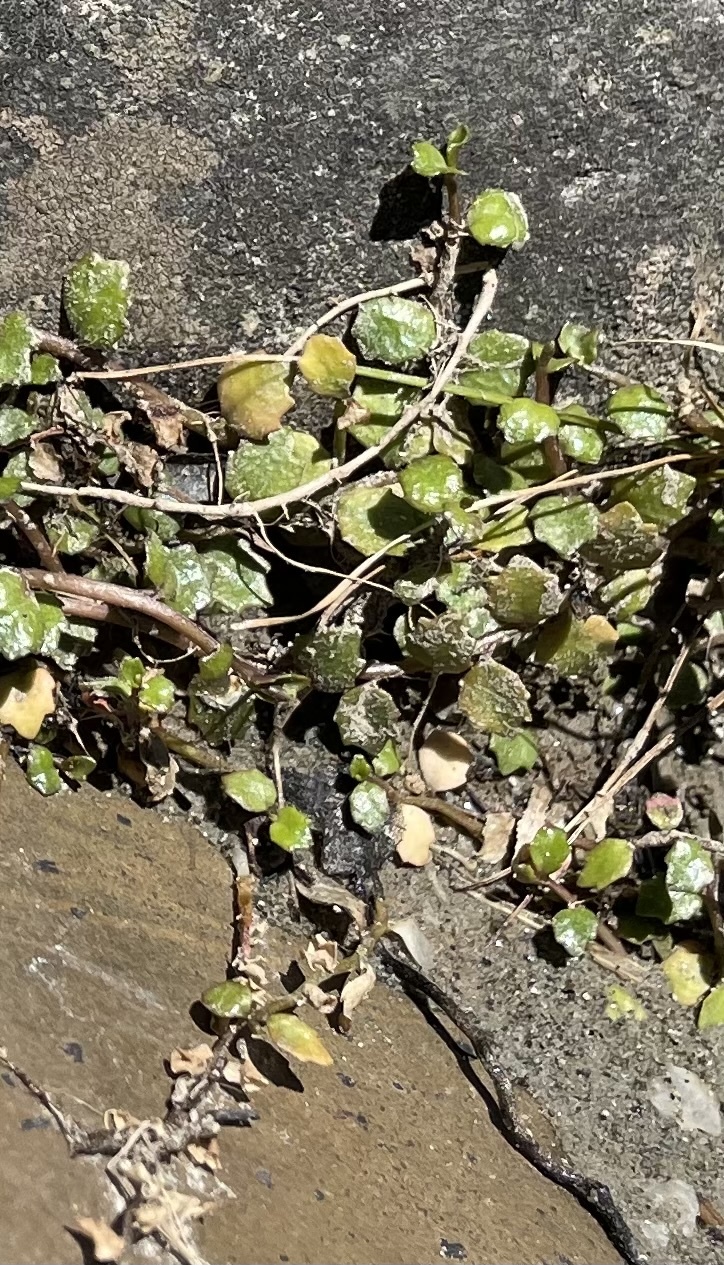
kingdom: Plantae
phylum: Tracheophyta
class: Magnoliopsida
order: Asterales
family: Campanulaceae
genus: Lobelia
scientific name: Lobelia angulata
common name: Lawn lobelia
